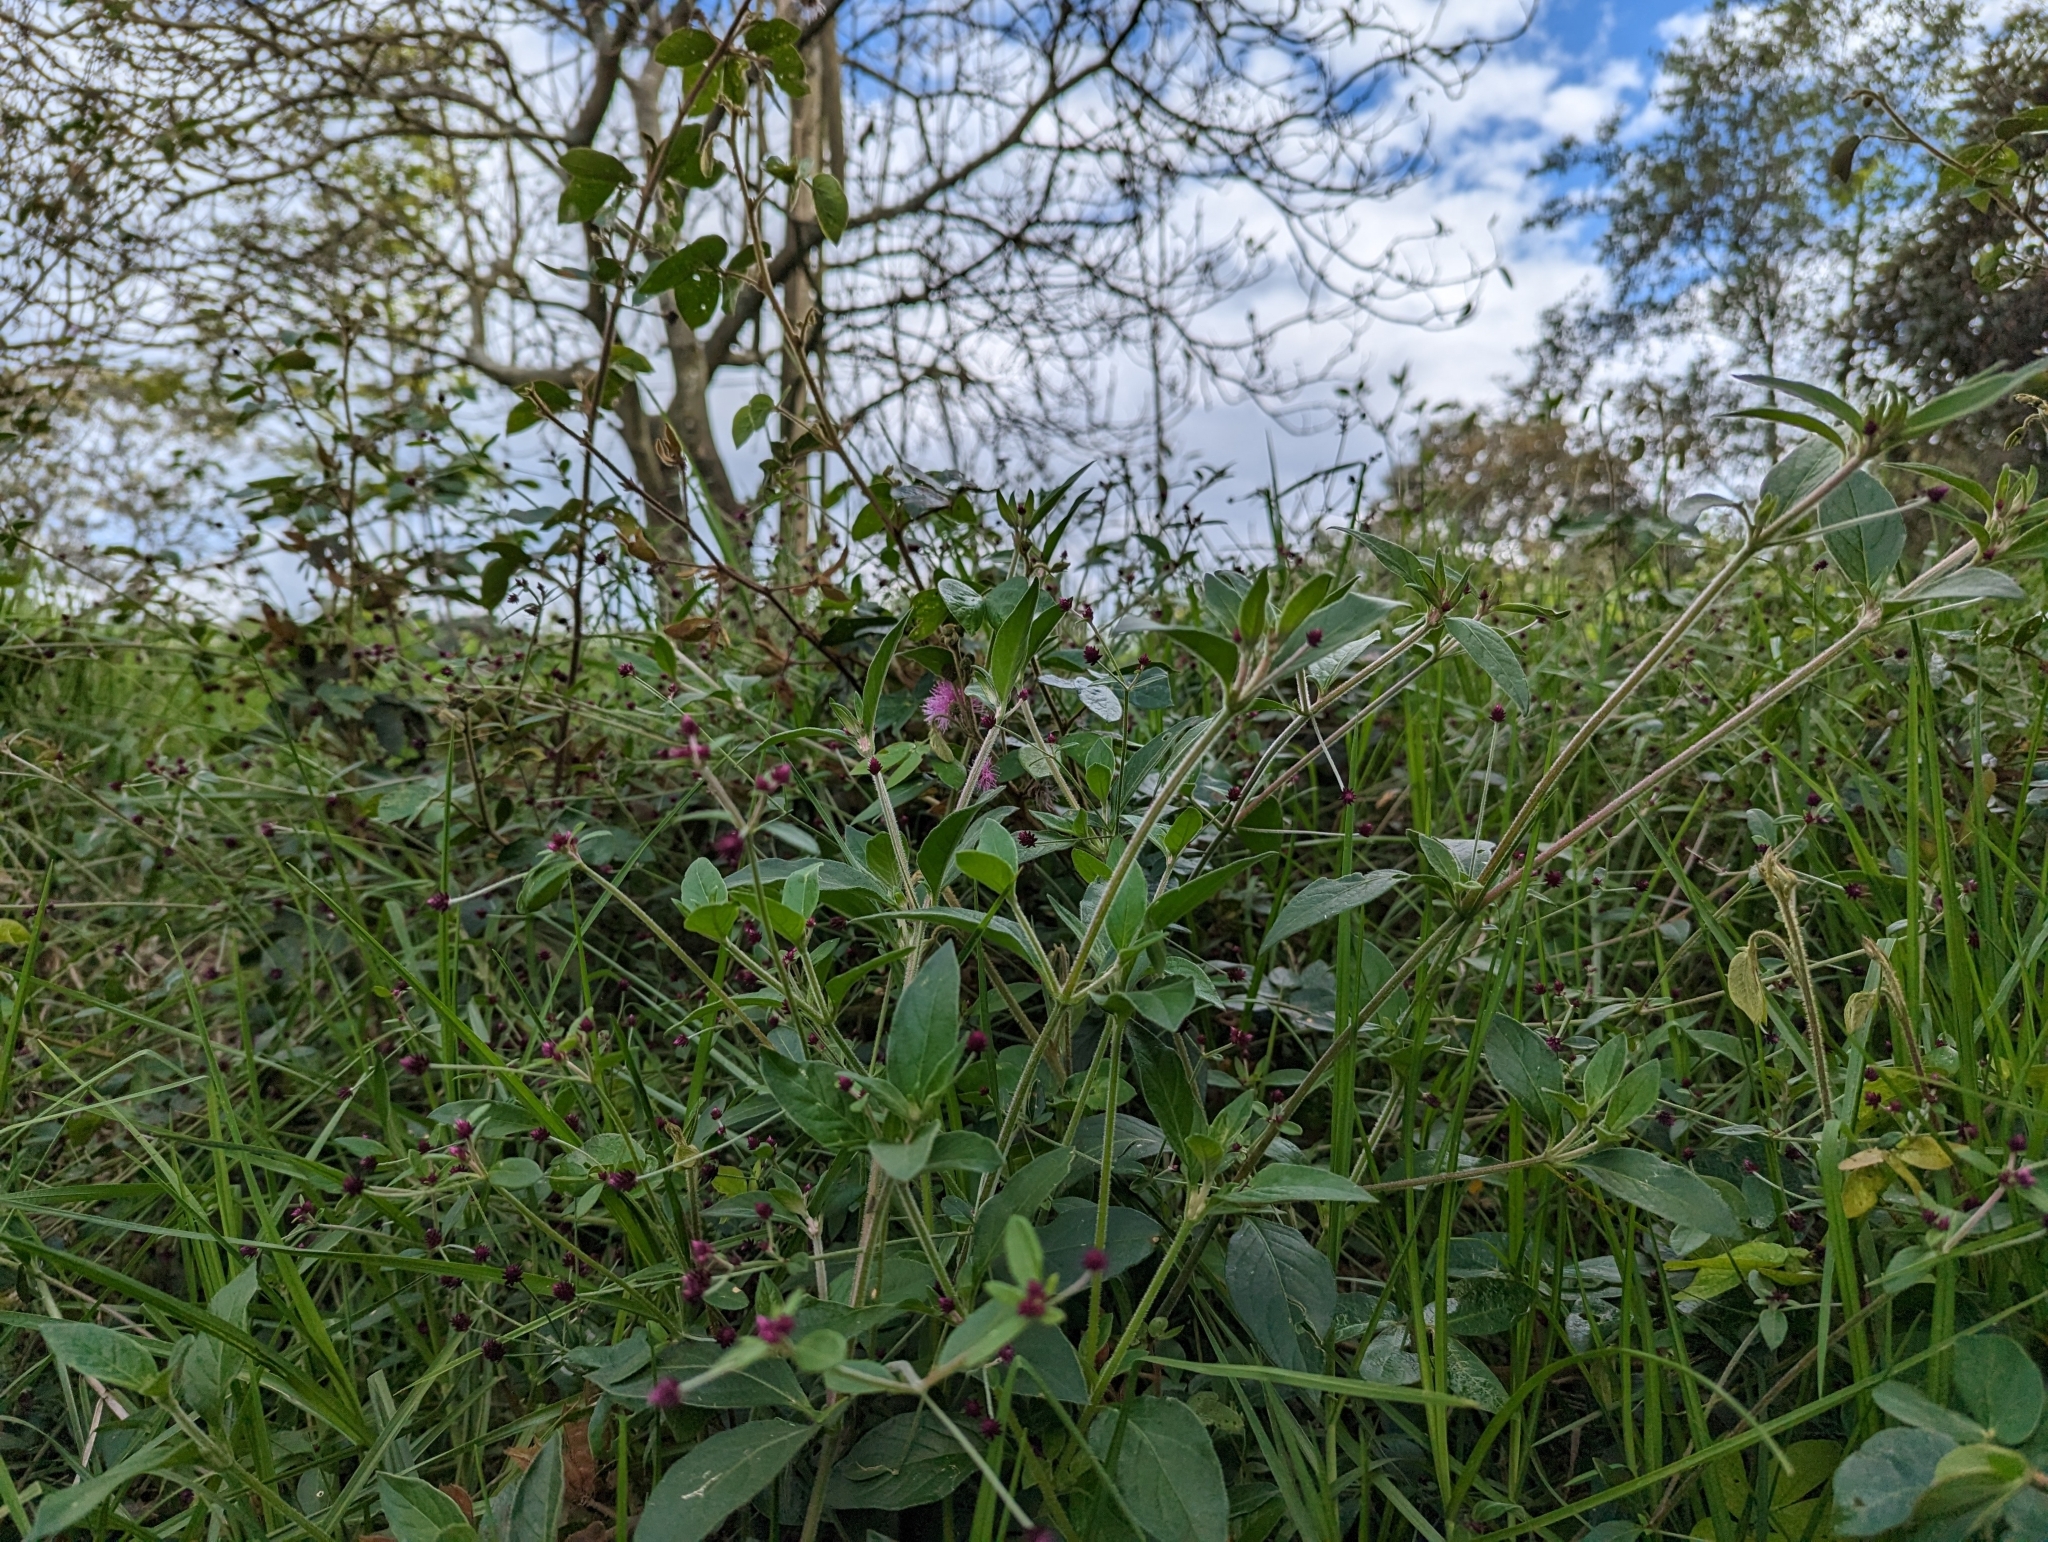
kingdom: Plantae
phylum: Tracheophyta
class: Magnoliopsida
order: Caryophyllales
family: Amaranthaceae
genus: Alternanthera
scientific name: Alternanthera porrigens
